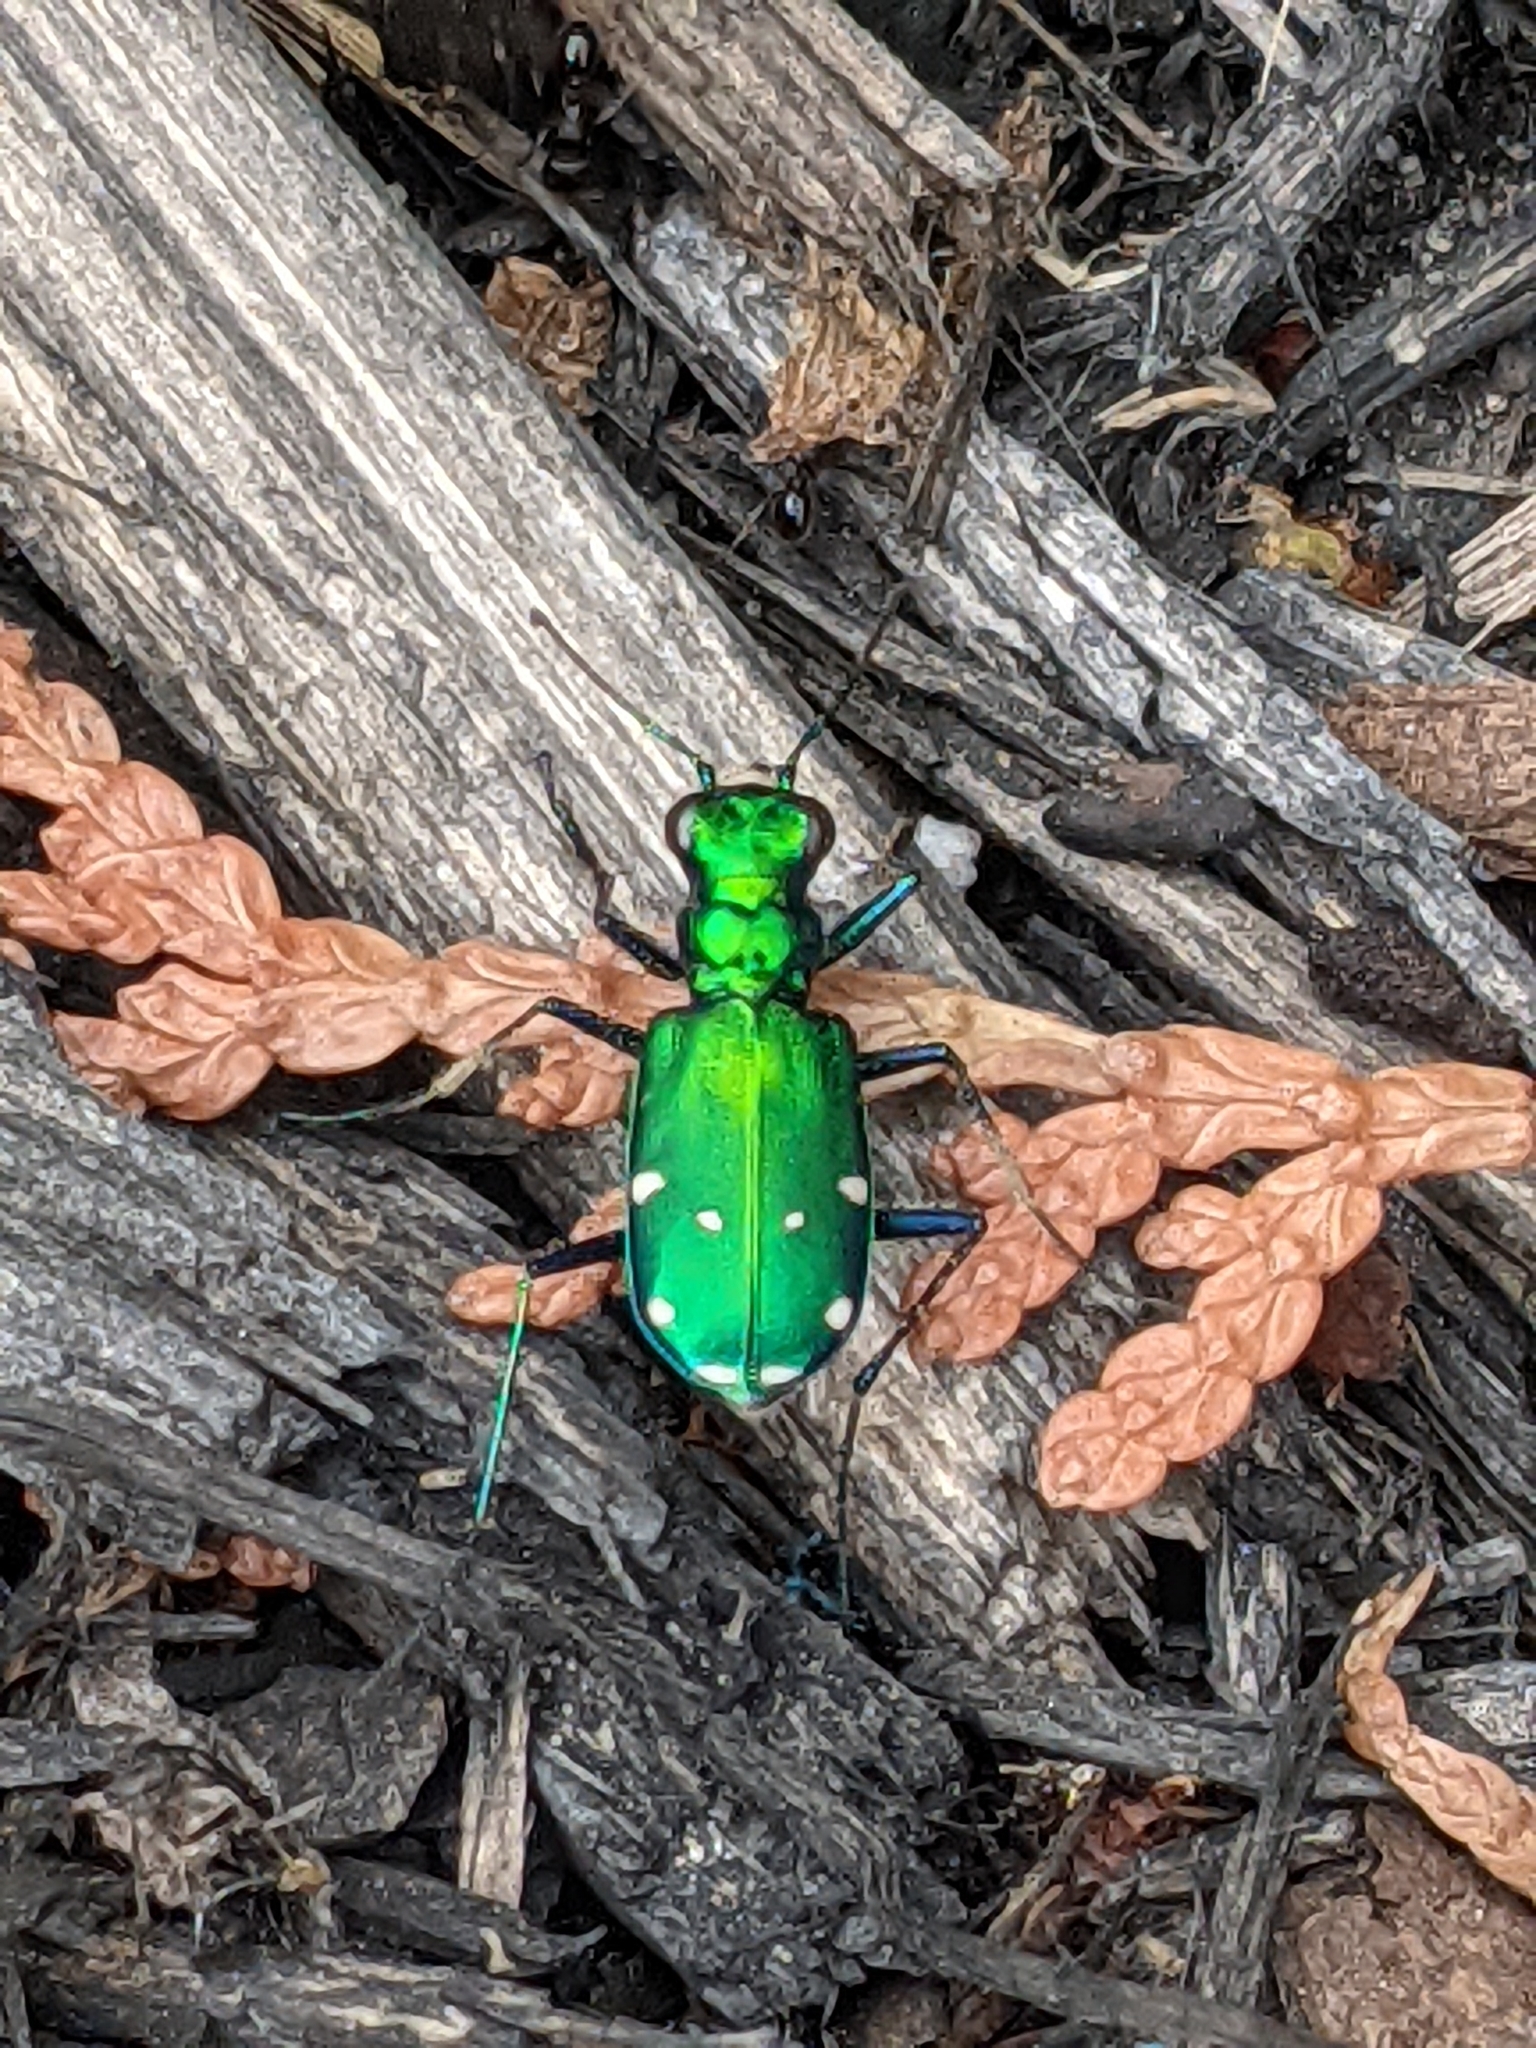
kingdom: Animalia
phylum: Arthropoda
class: Insecta
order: Coleoptera
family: Carabidae
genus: Cicindela
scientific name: Cicindela sexguttata
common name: Six-spotted tiger beetle
